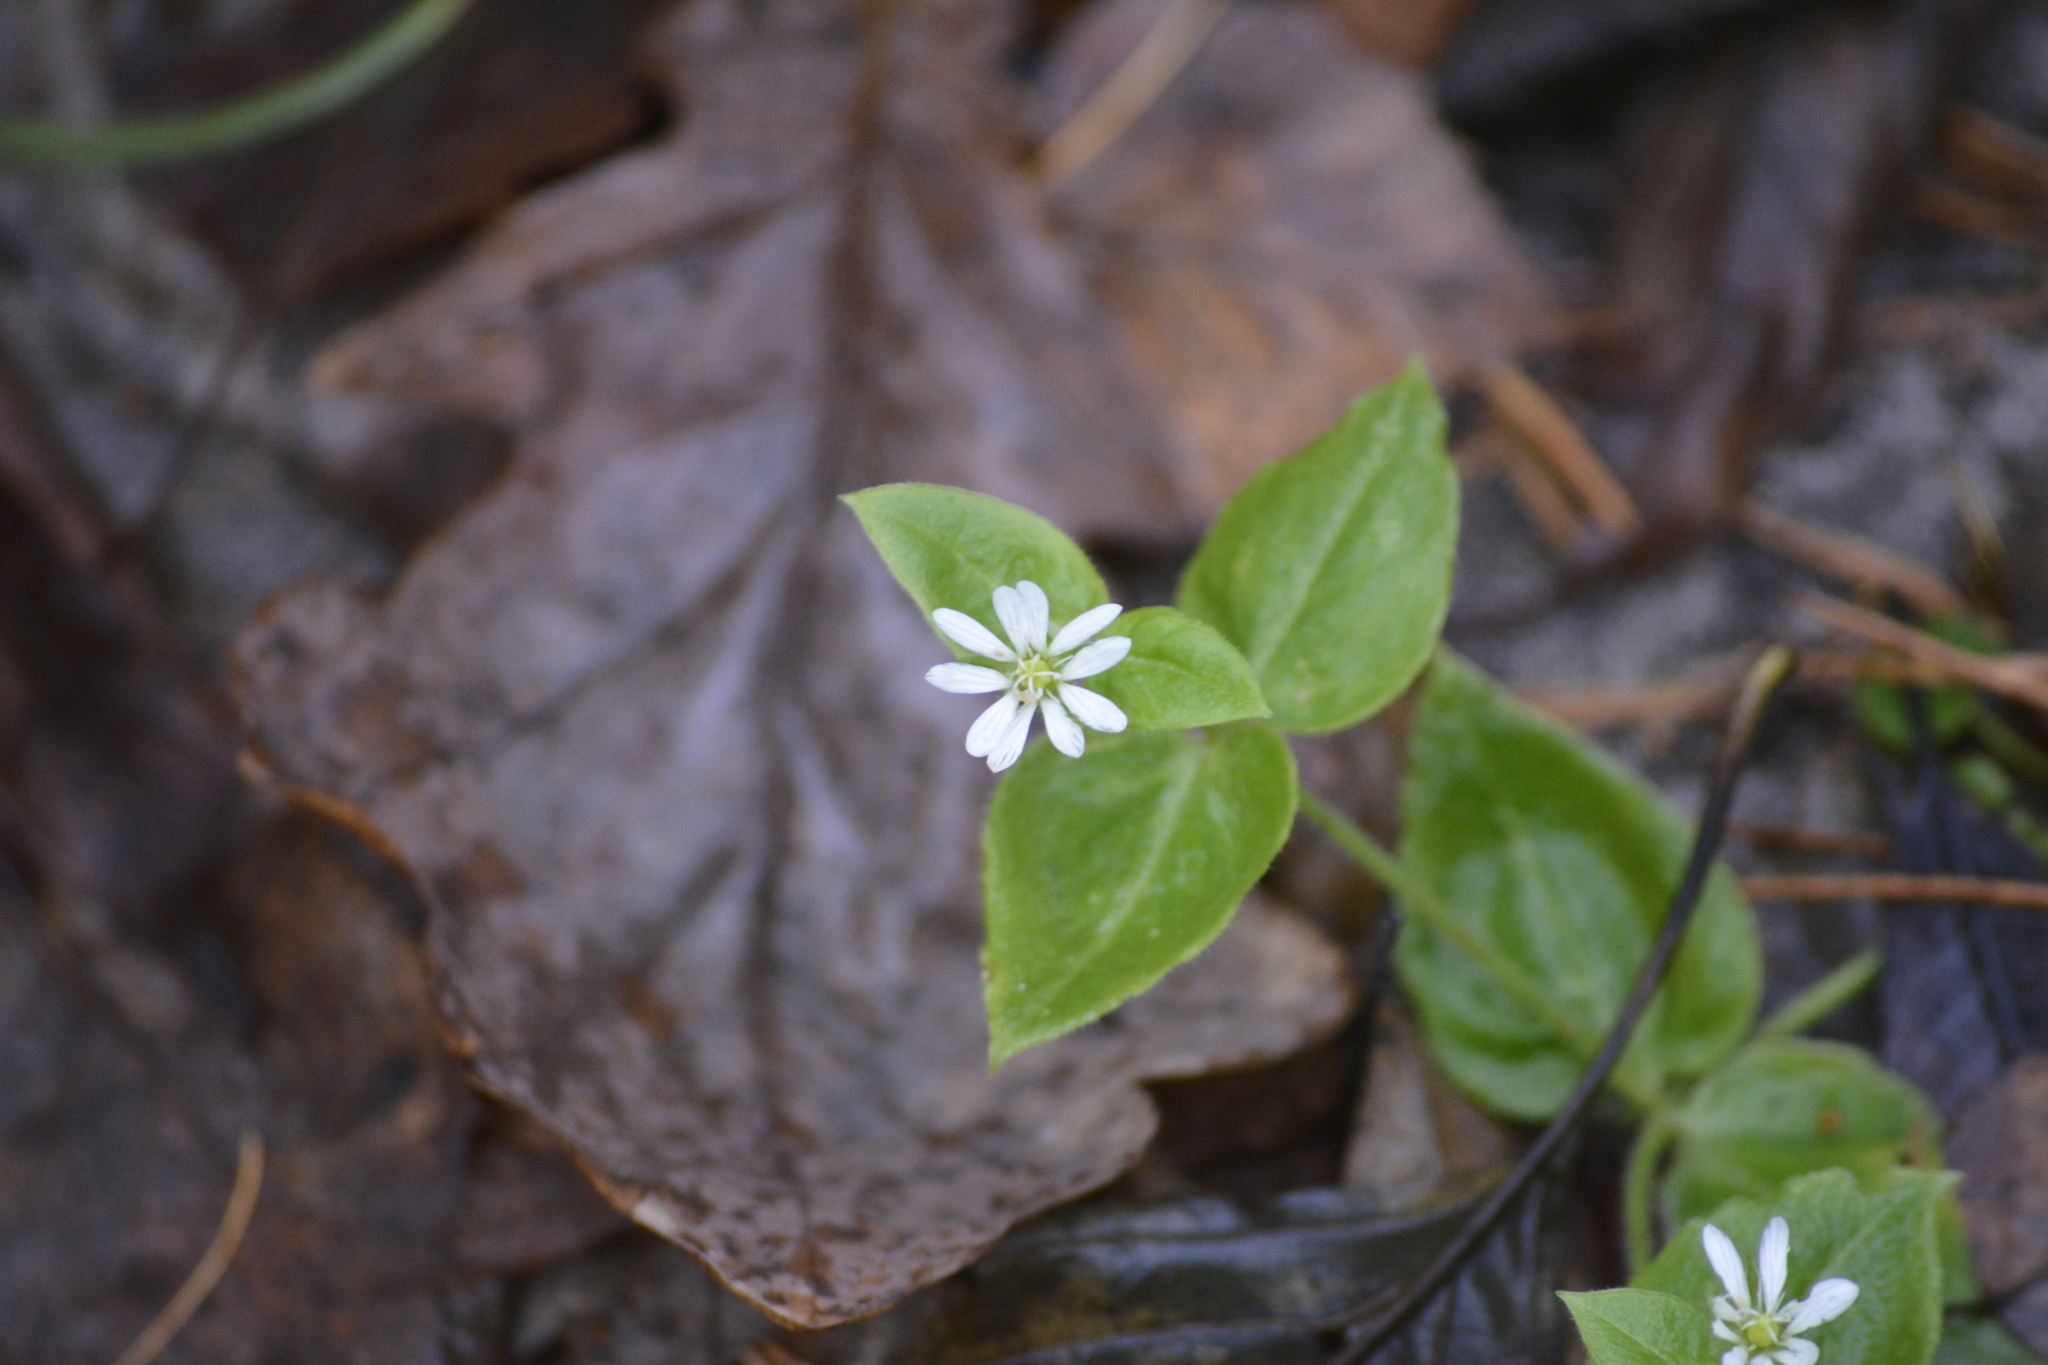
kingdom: Plantae
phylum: Tracheophyta
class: Magnoliopsida
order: Caryophyllales
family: Caryophyllaceae
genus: Stellaria
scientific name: Stellaria aquatica
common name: Water chickweed
